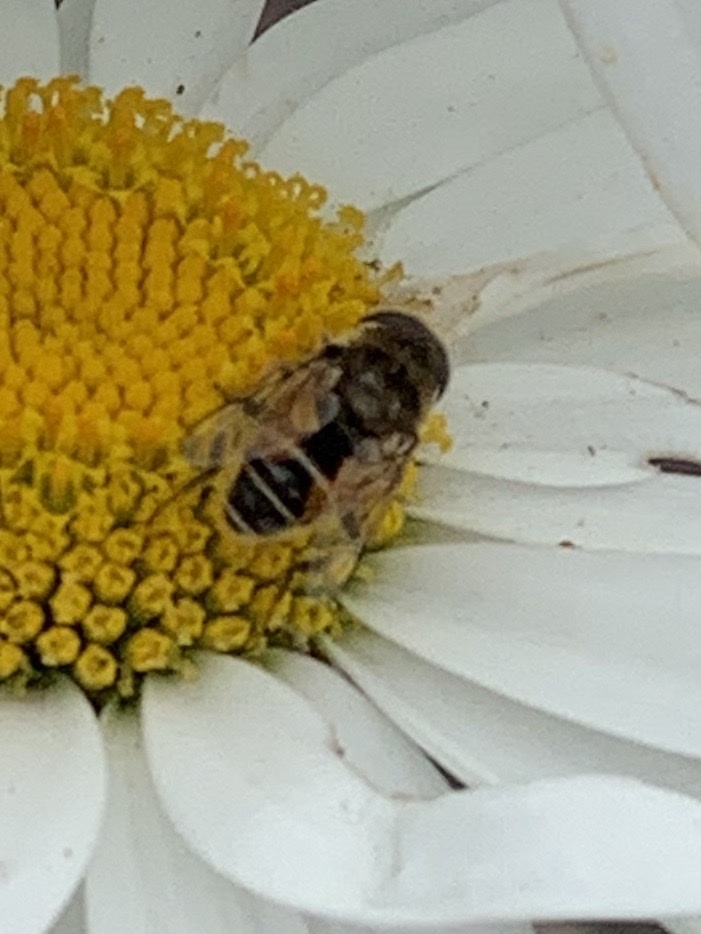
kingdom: Animalia
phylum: Arthropoda
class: Insecta
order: Diptera
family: Syrphidae
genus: Eristalis
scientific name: Eristalis arbustorum
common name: Hover fly
